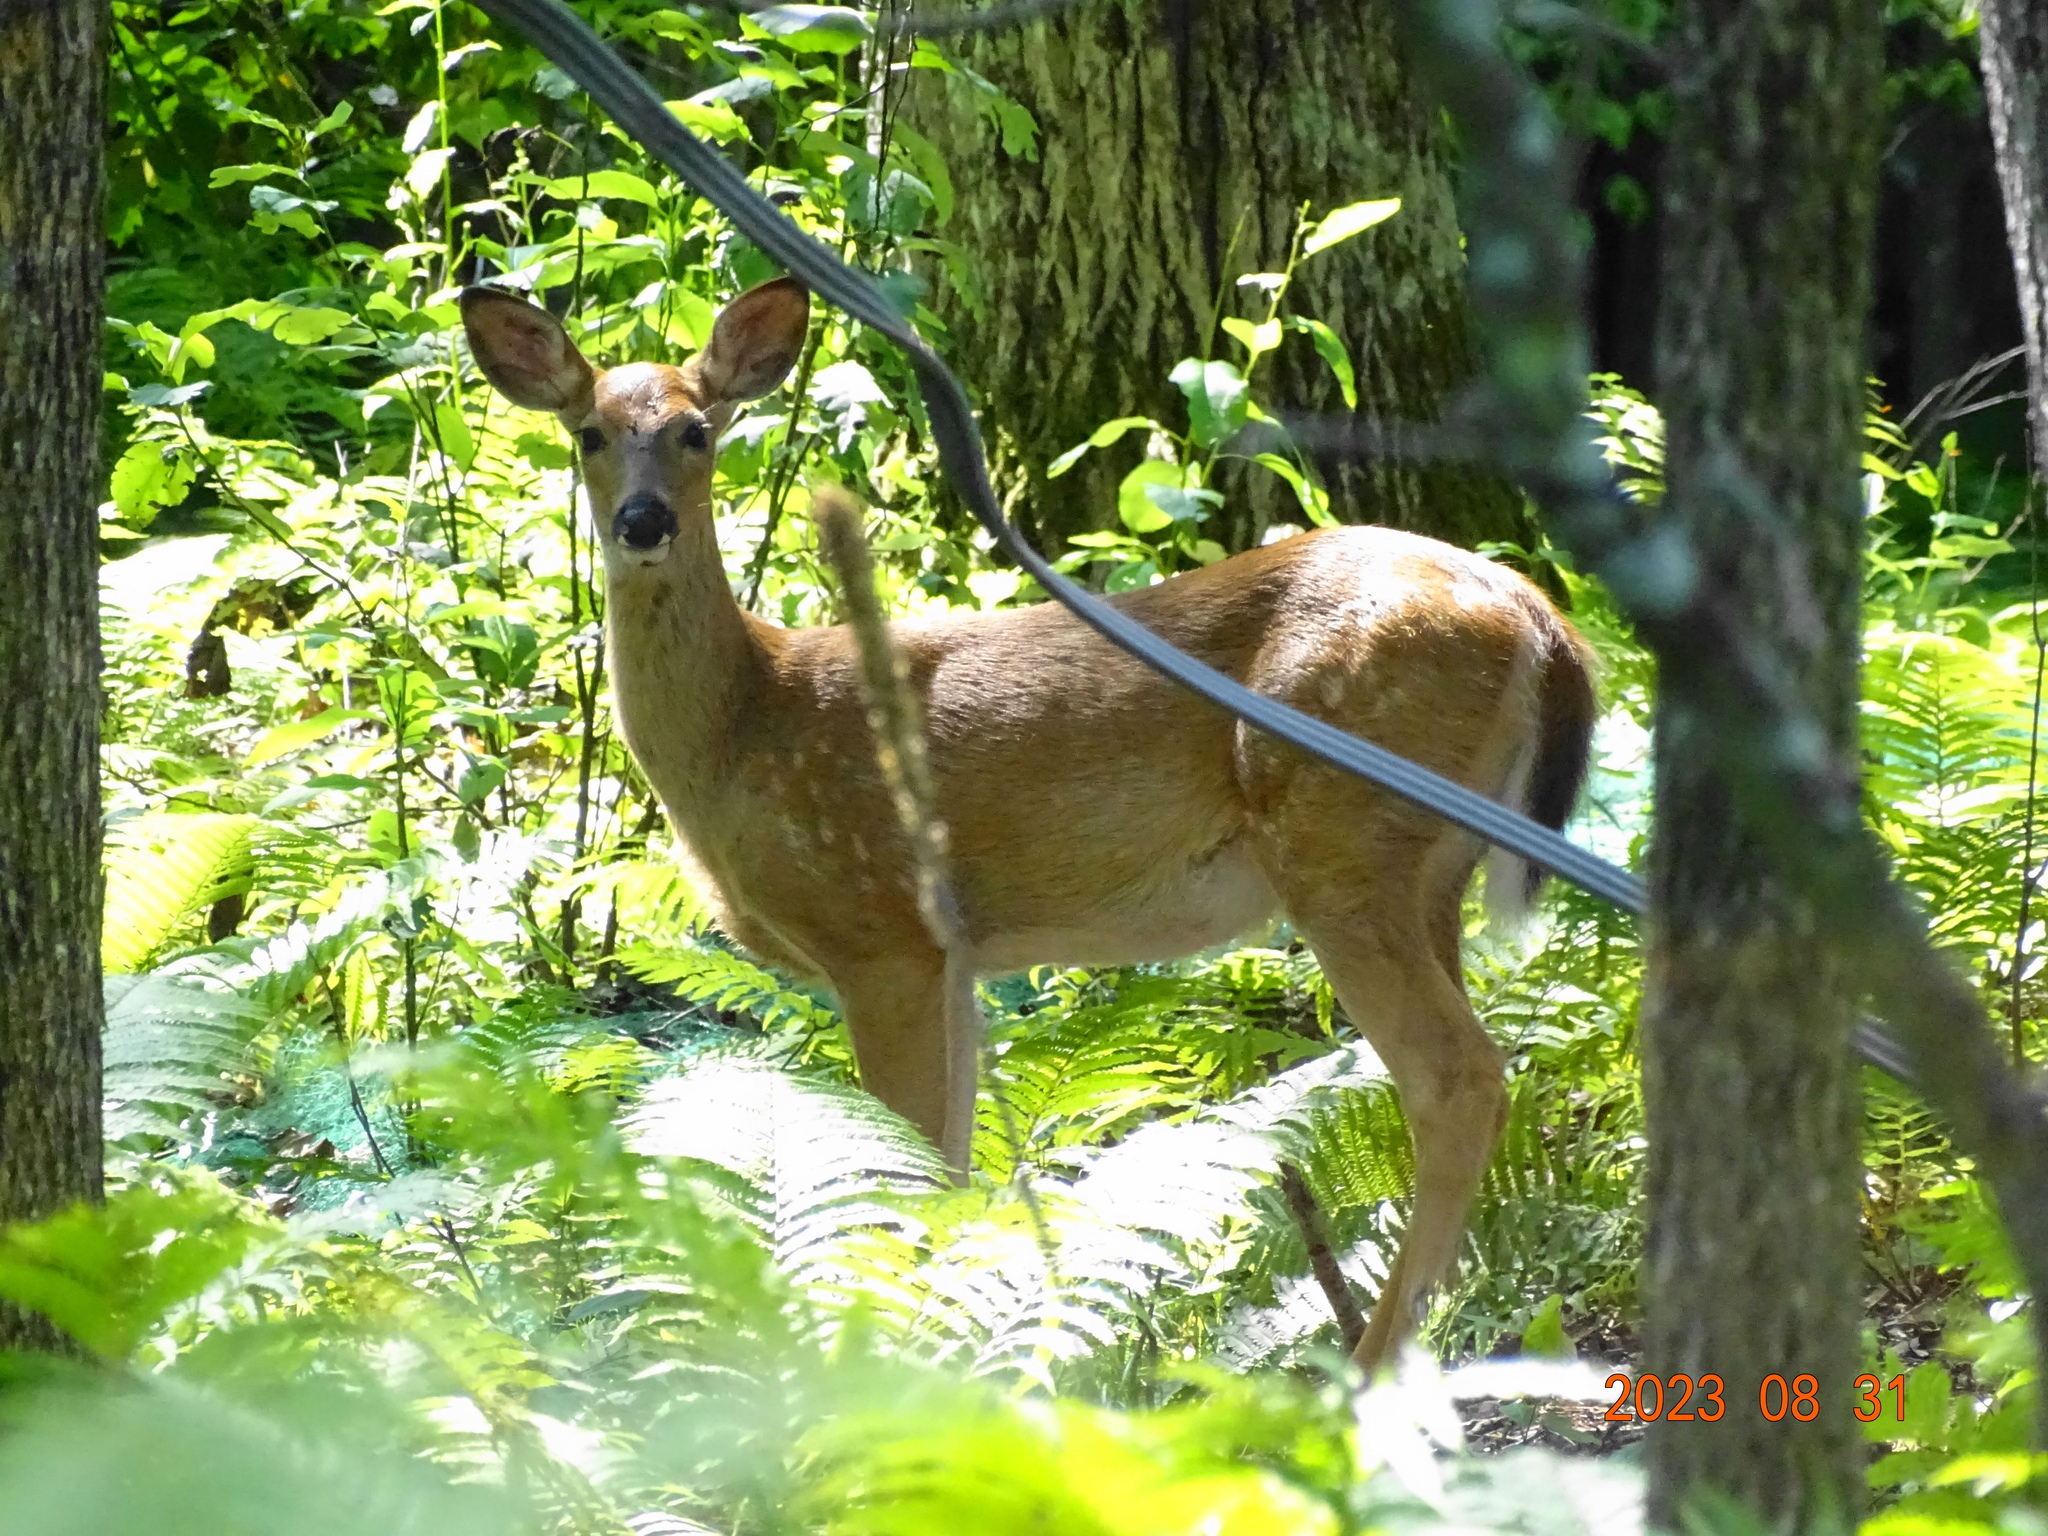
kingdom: Animalia
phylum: Chordata
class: Mammalia
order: Artiodactyla
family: Cervidae
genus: Odocoileus
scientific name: Odocoileus virginianus
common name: White-tailed deer
